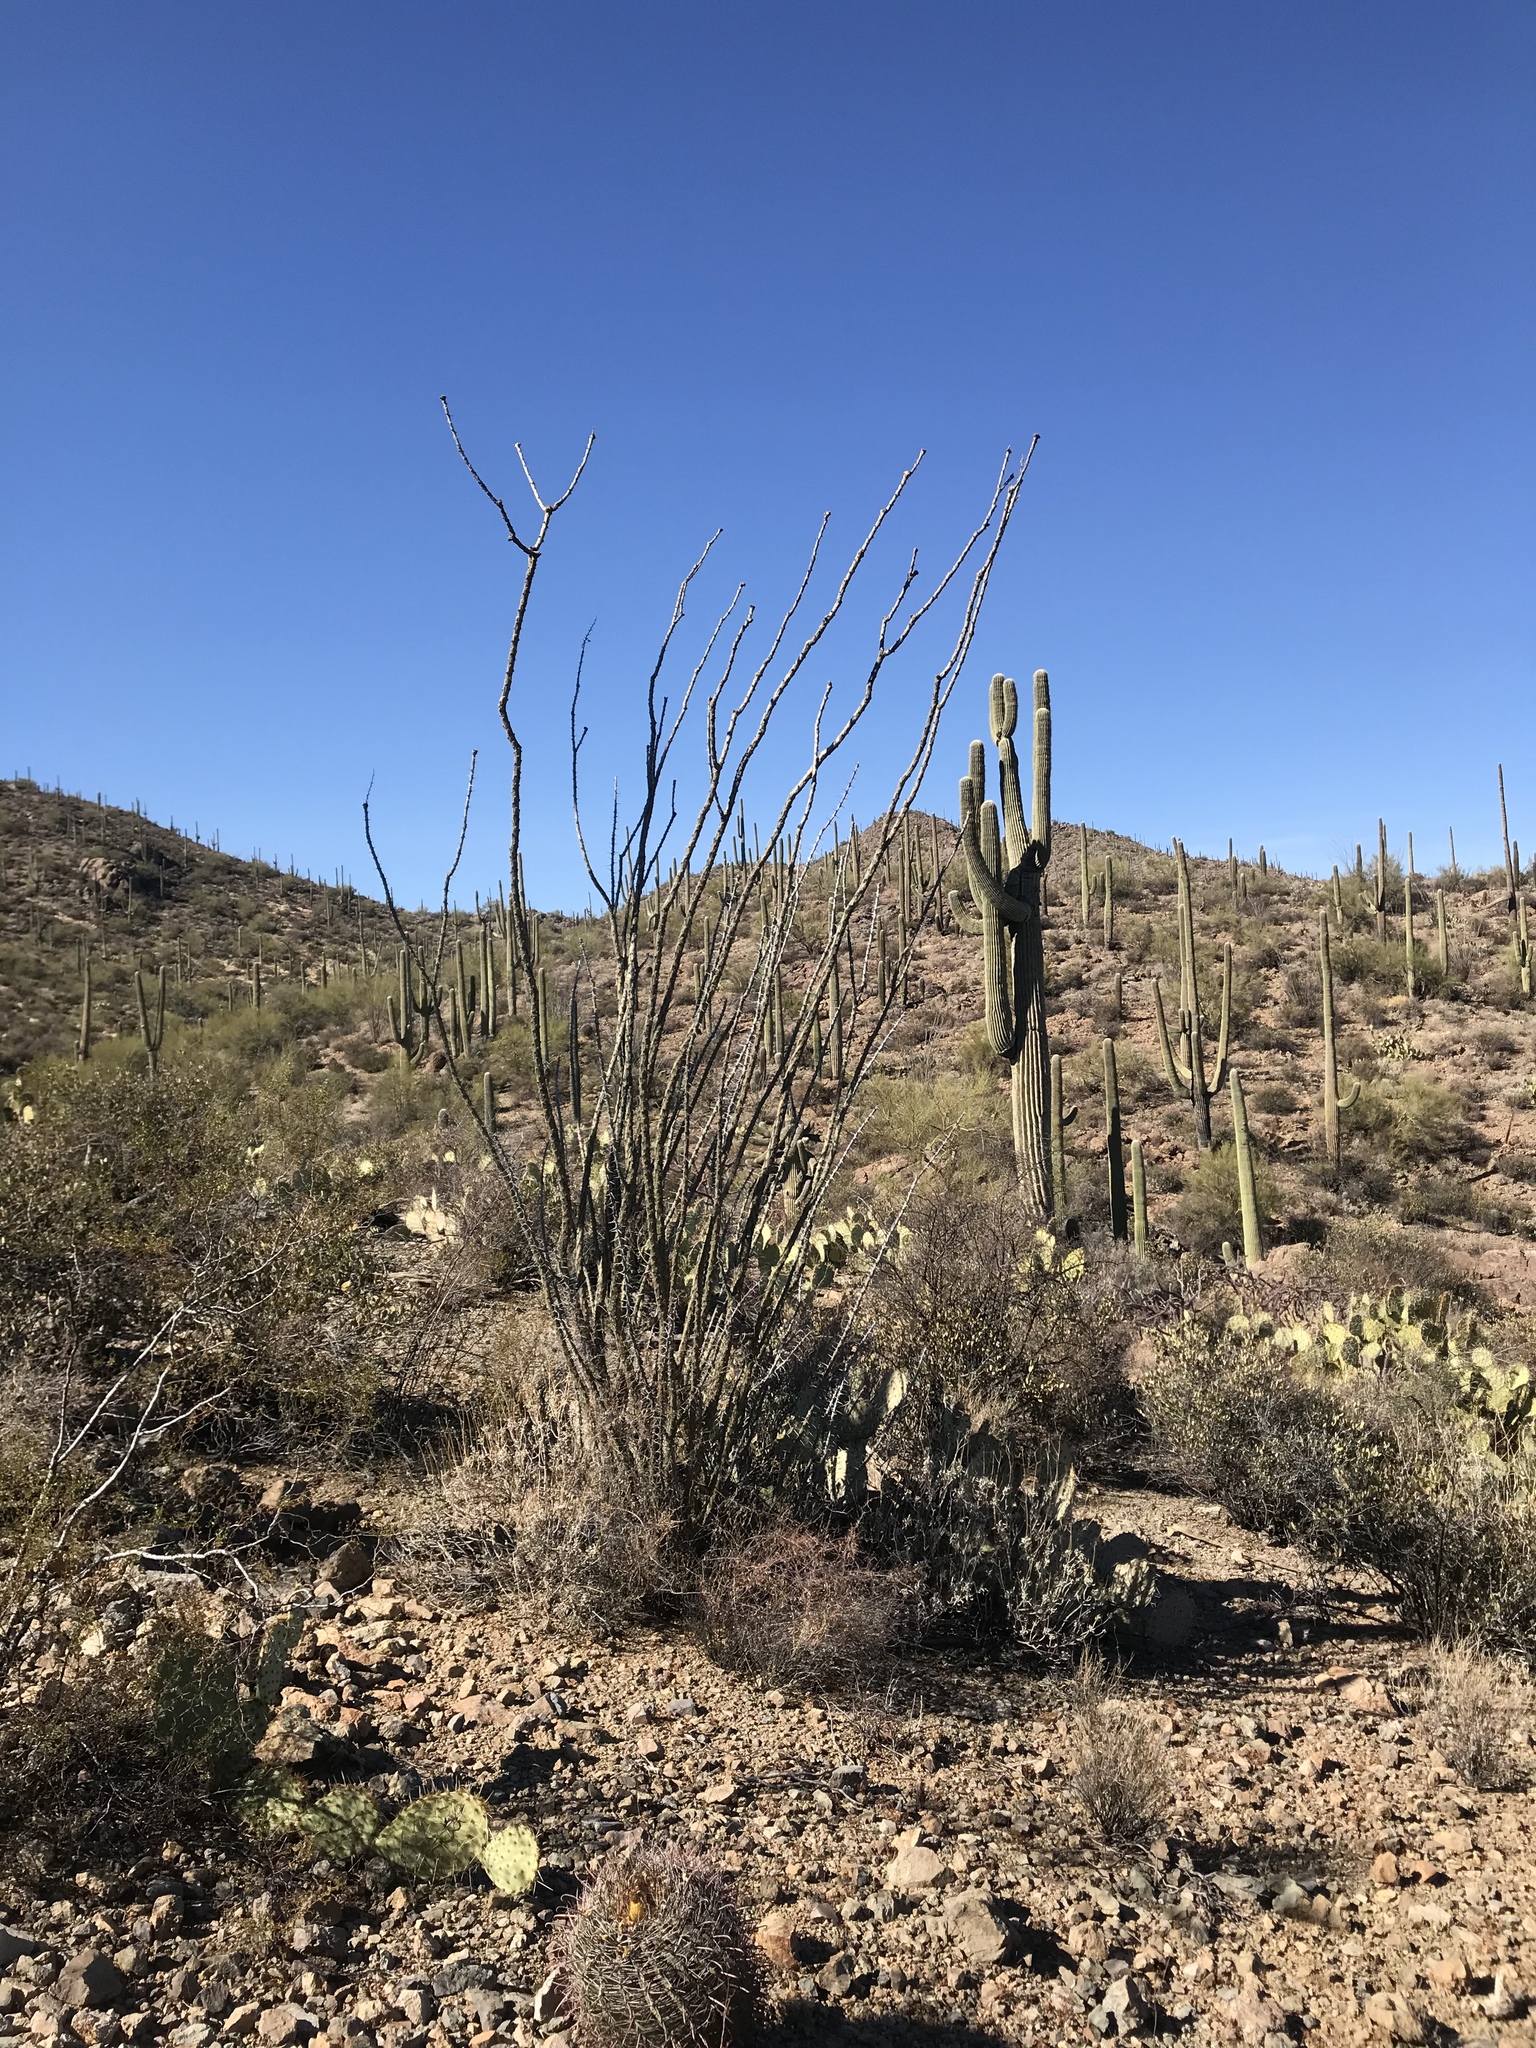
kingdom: Plantae
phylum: Tracheophyta
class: Magnoliopsida
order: Ericales
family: Fouquieriaceae
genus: Fouquieria
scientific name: Fouquieria splendens
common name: Vine-cactus
